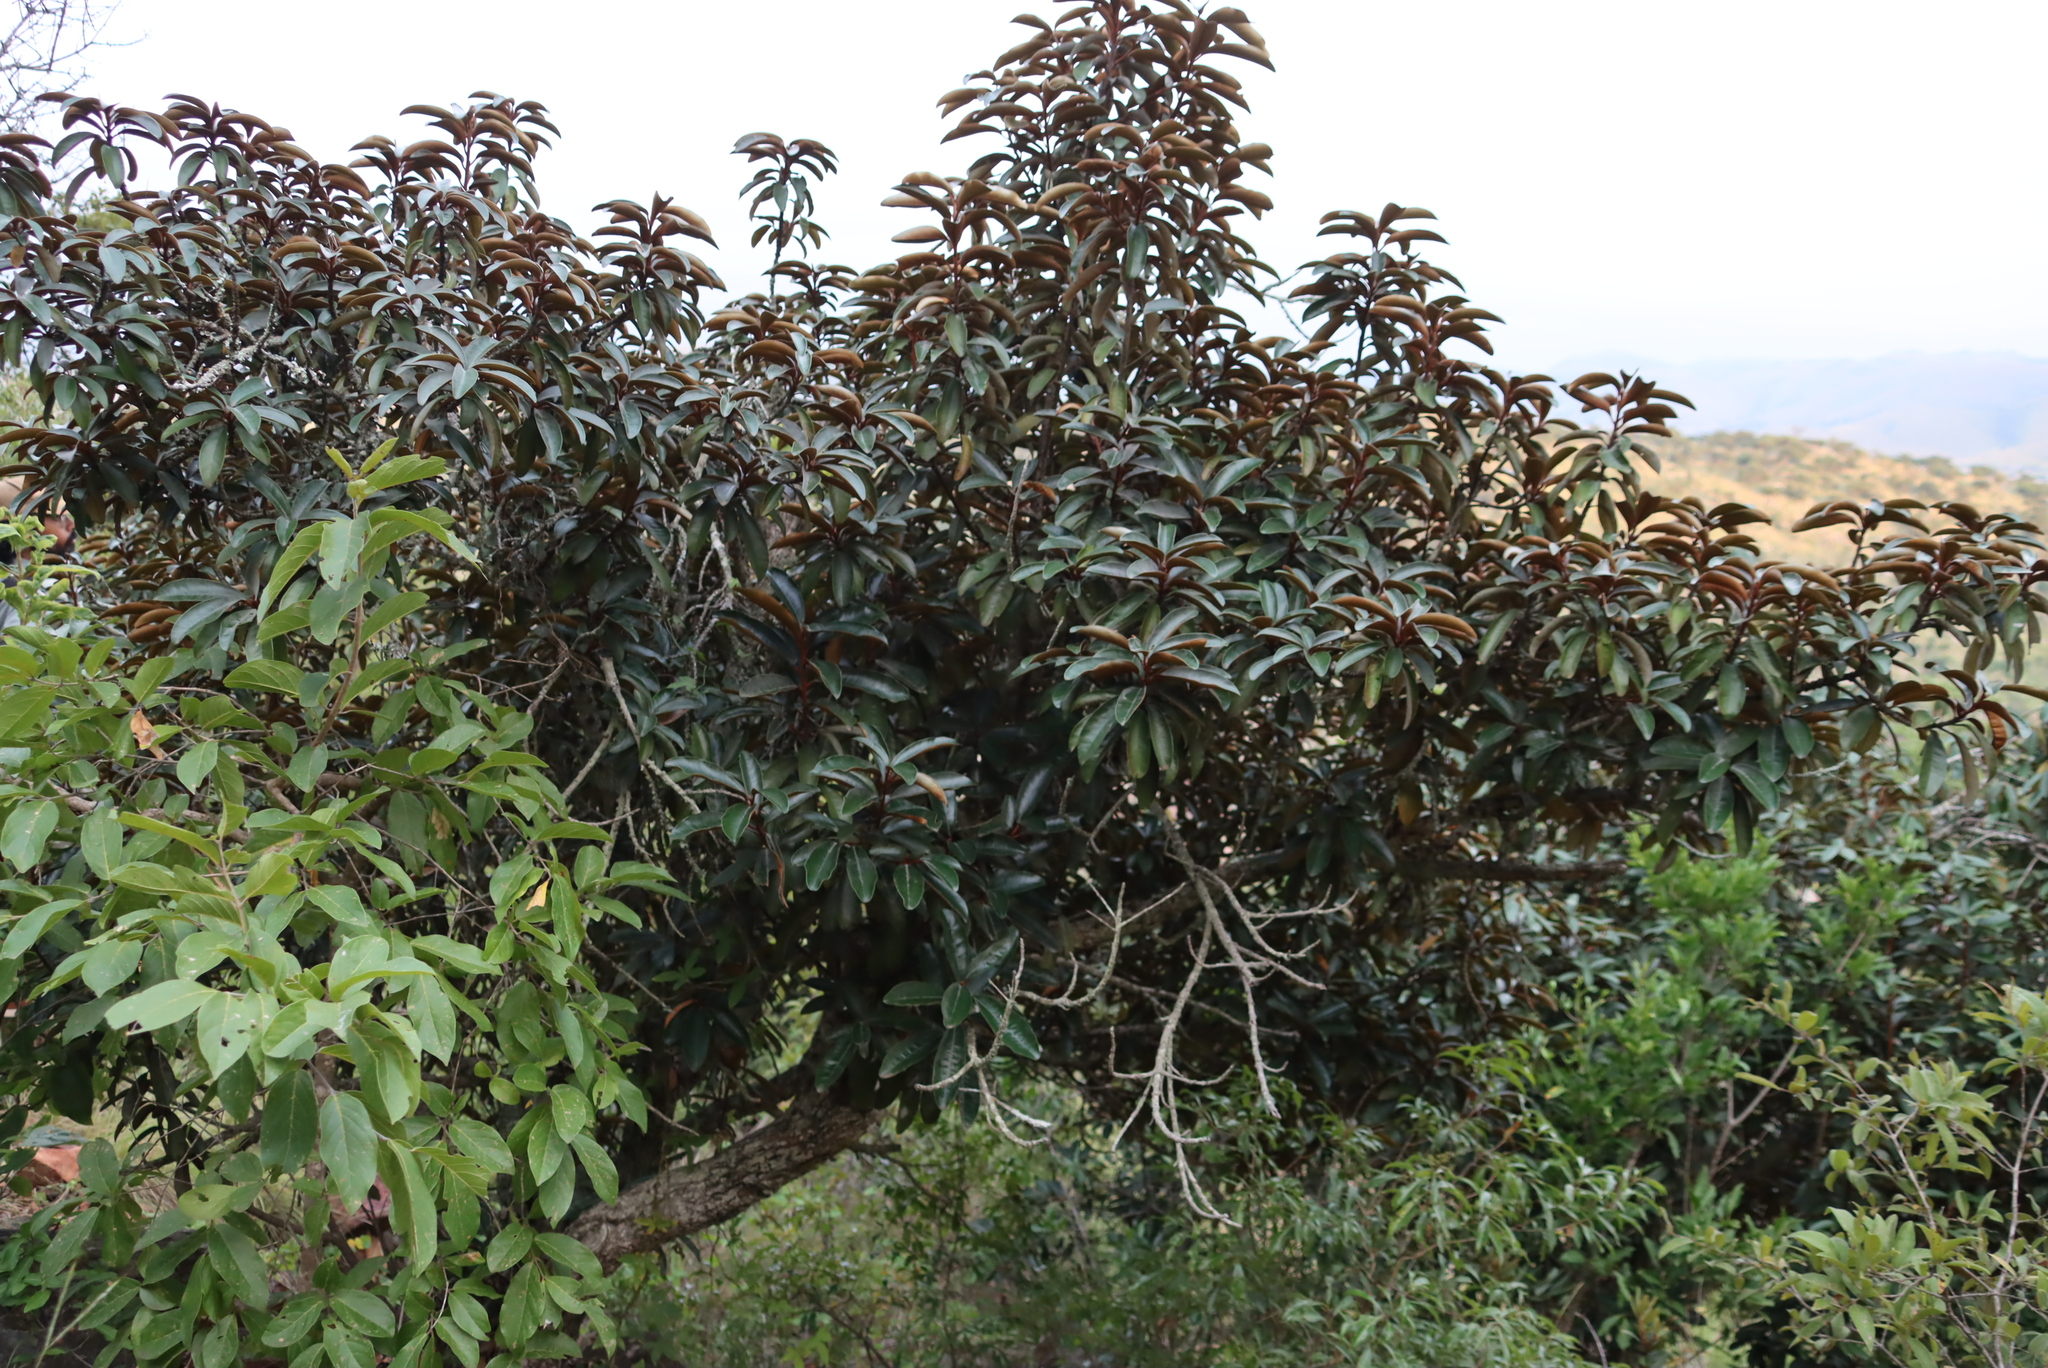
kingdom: Plantae
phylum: Tracheophyta
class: Magnoliopsida
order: Ericales
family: Sapotaceae
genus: Englerophytum
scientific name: Englerophytum magalismontanum
